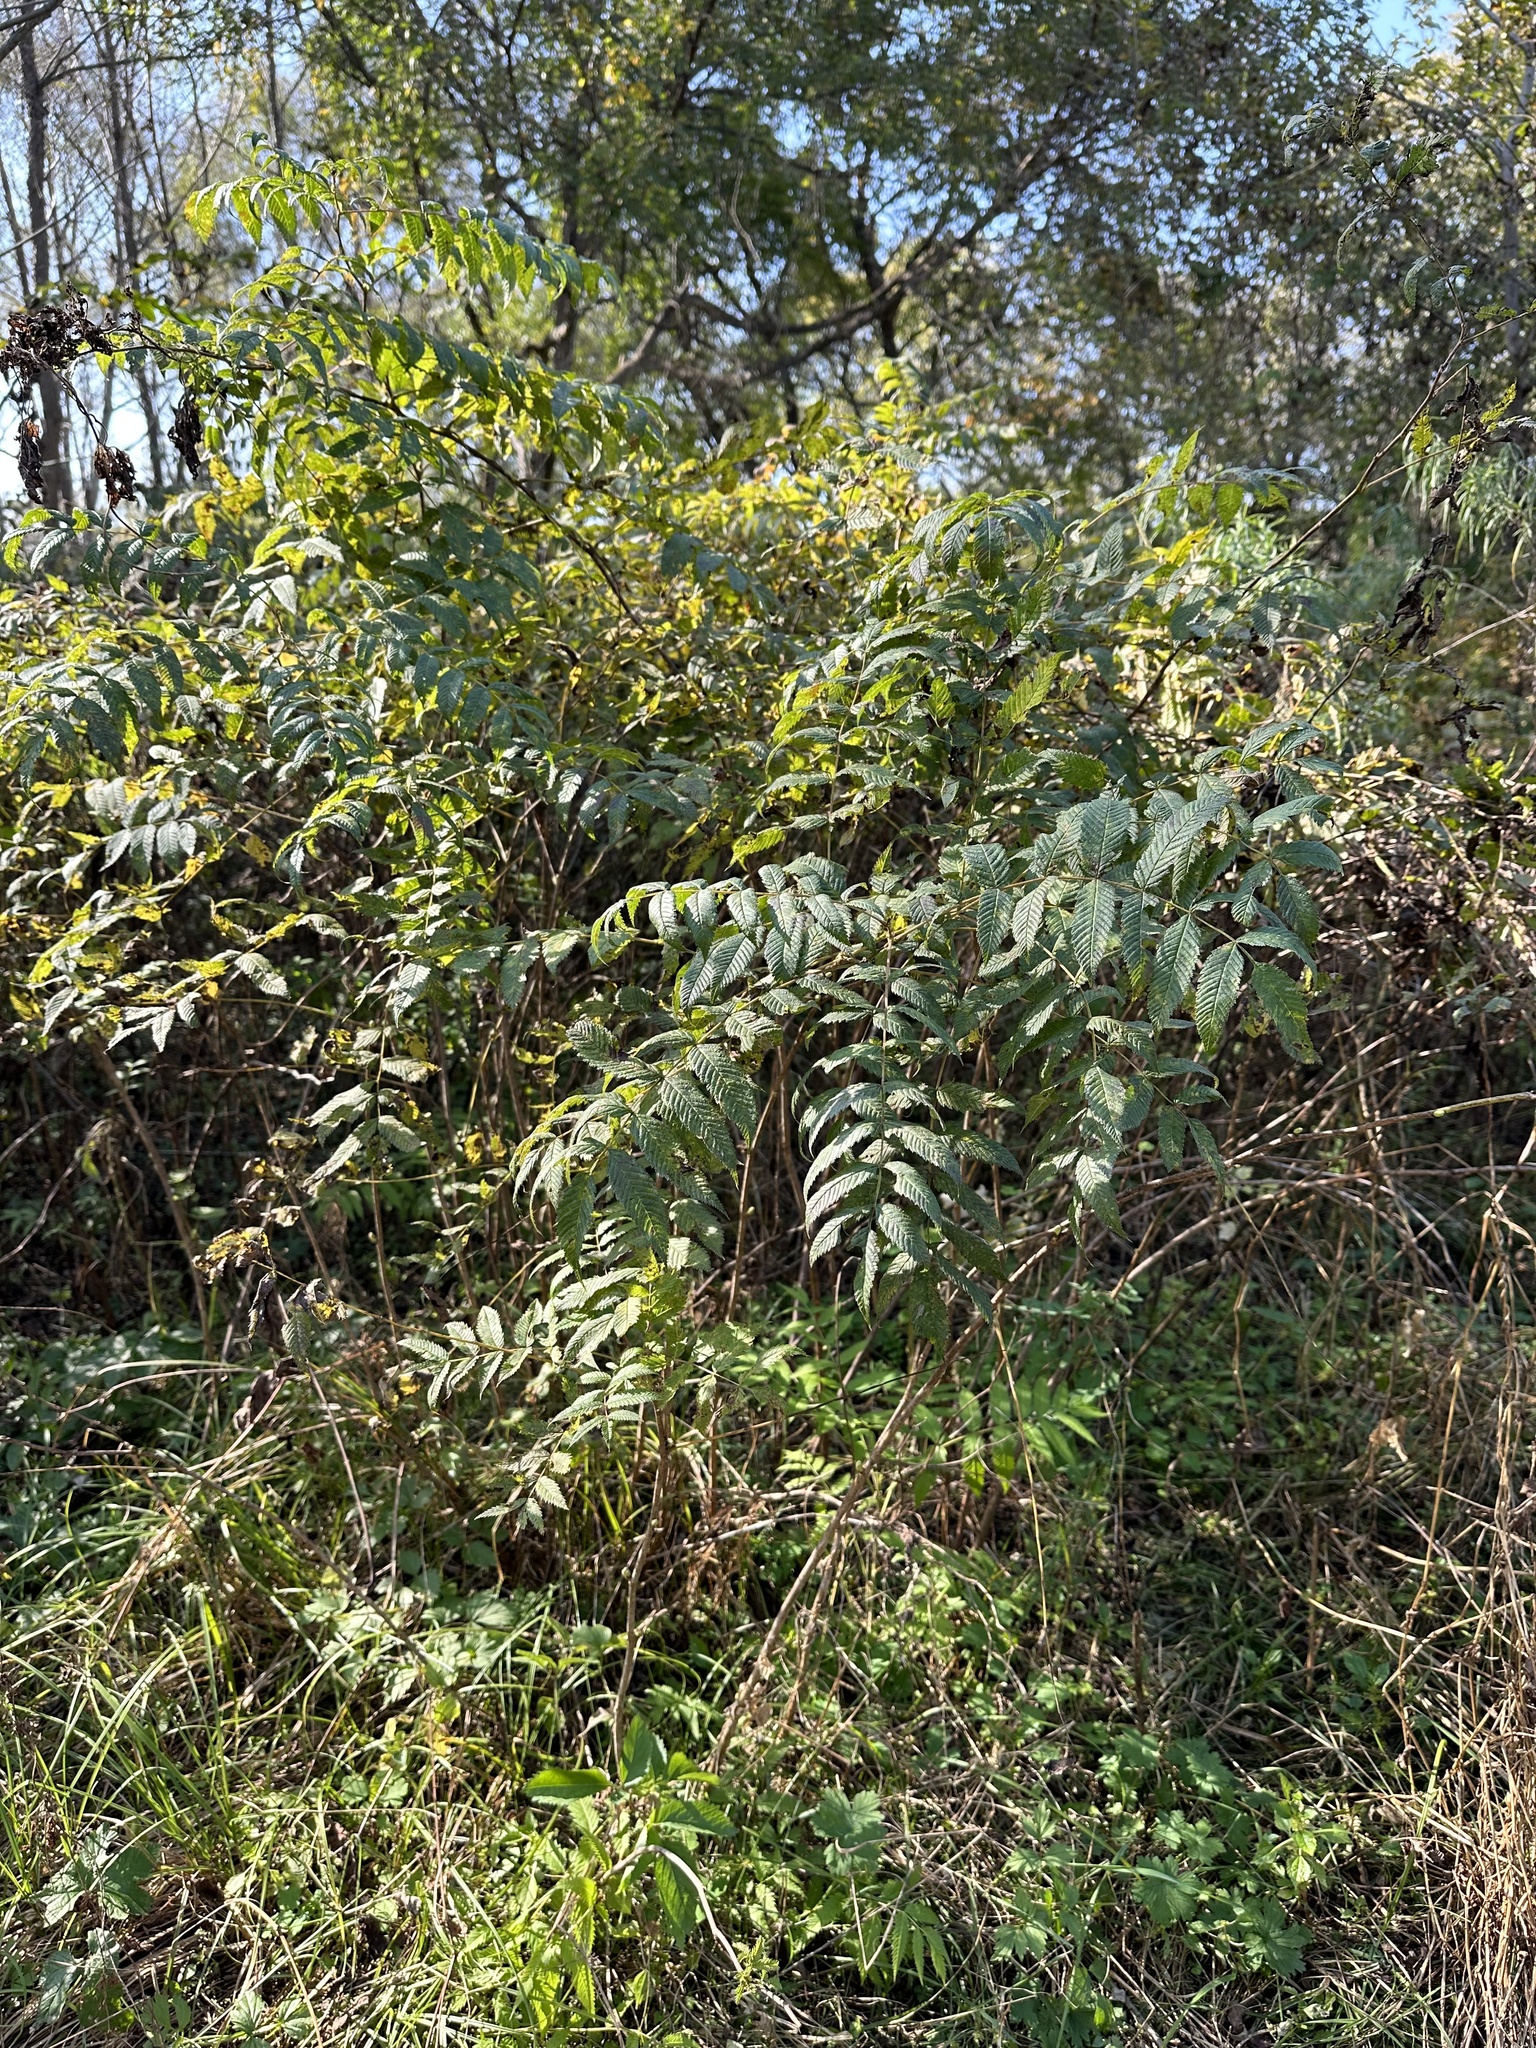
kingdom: Plantae
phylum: Tracheophyta
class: Magnoliopsida
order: Rosales
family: Rosaceae
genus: Sorbaria
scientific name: Sorbaria sorbifolia
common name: False spiraea
